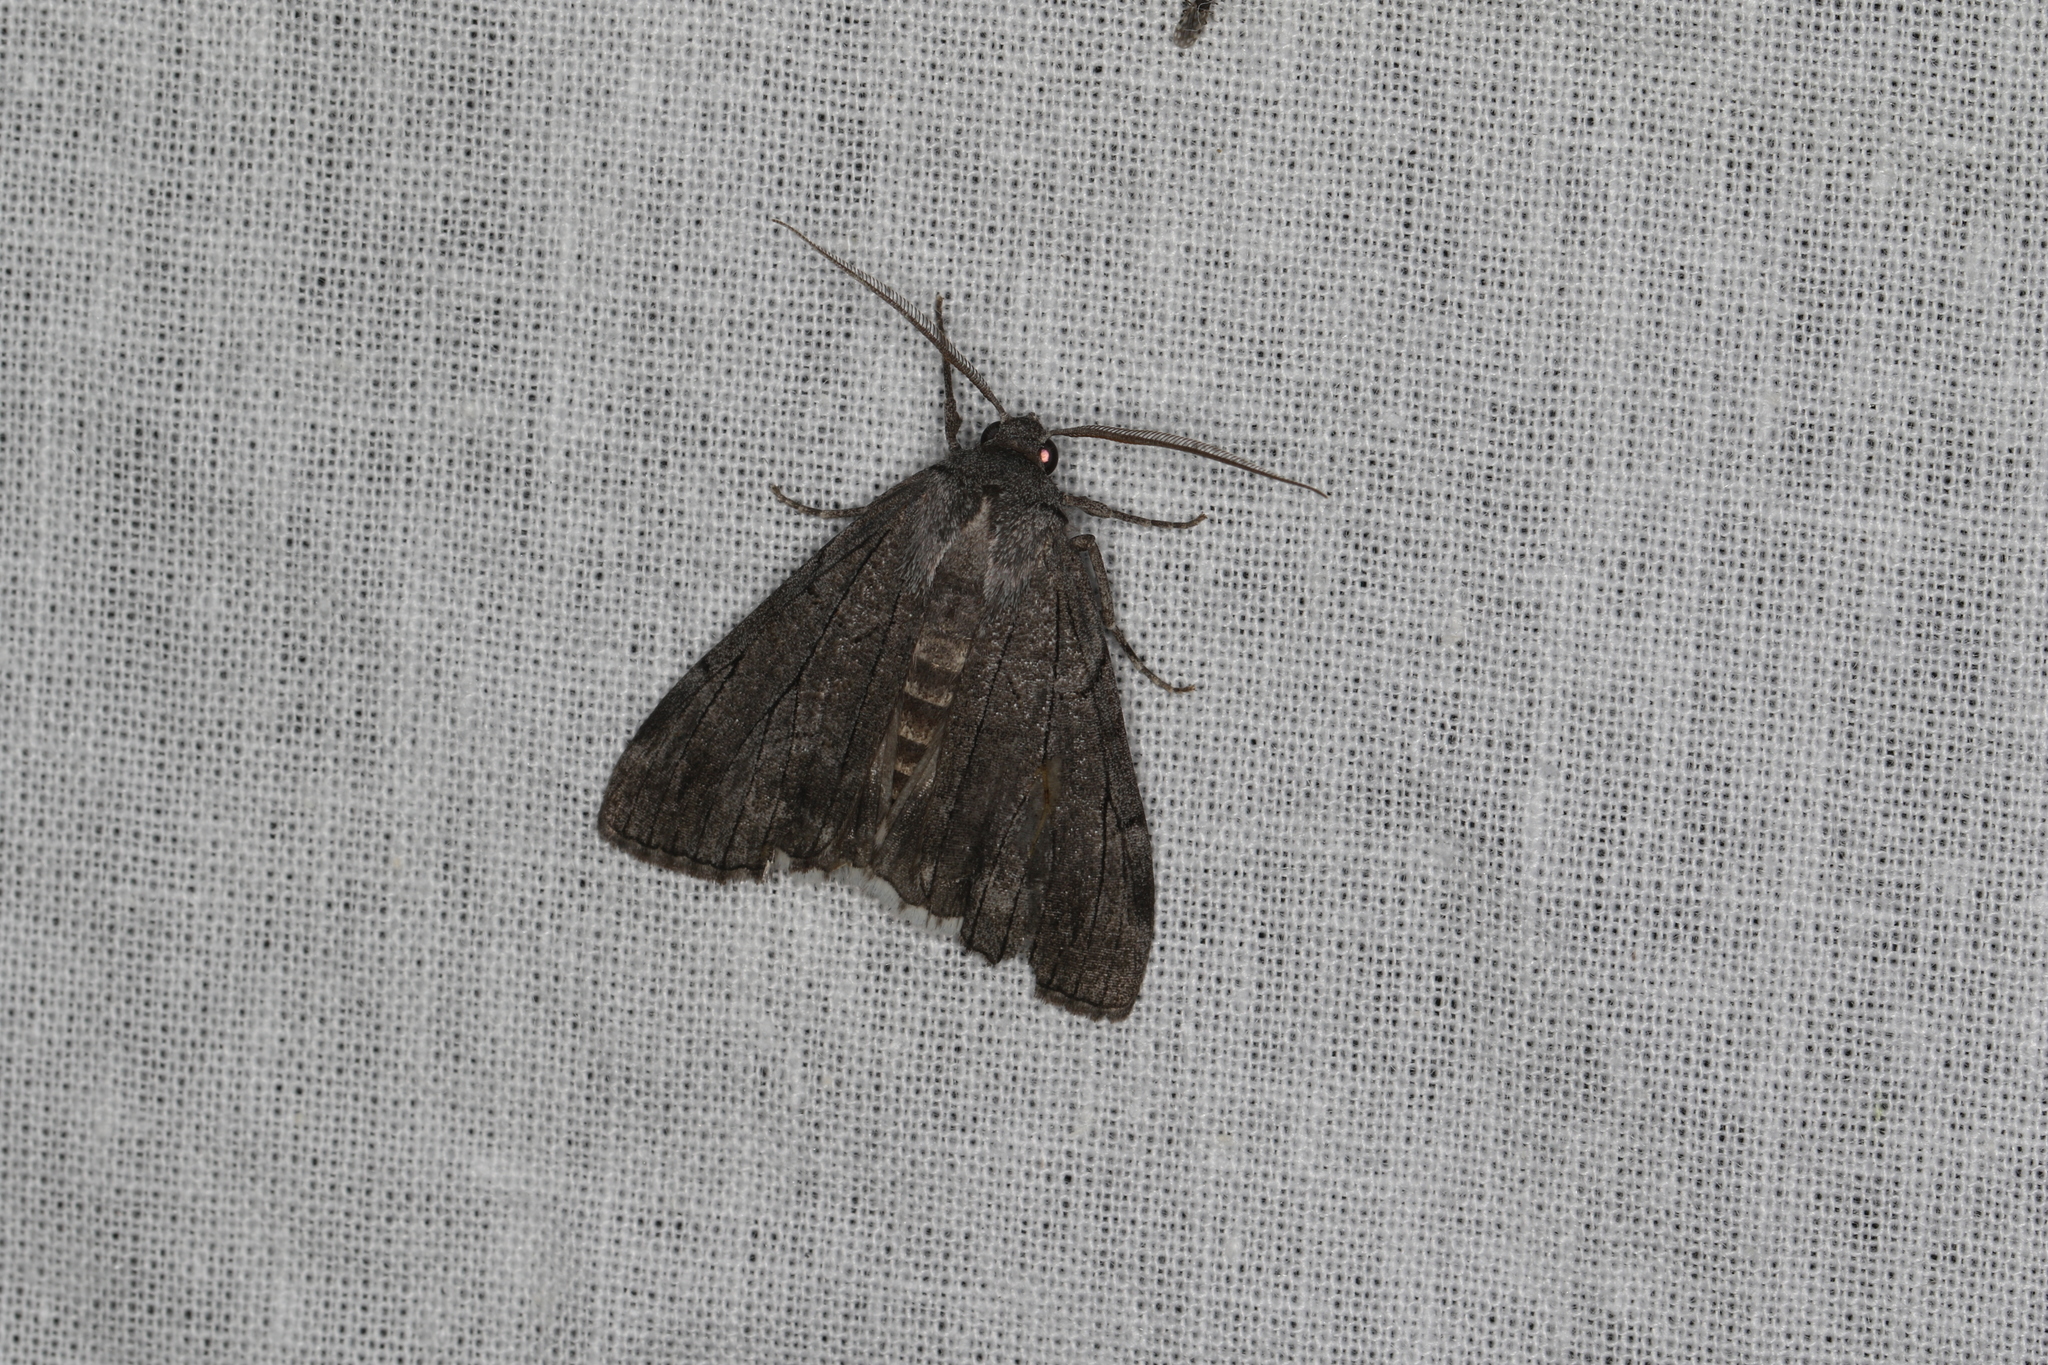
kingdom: Animalia
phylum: Arthropoda
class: Insecta
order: Lepidoptera
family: Geometridae
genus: Stibaroma
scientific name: Stibaroma aphronesa
